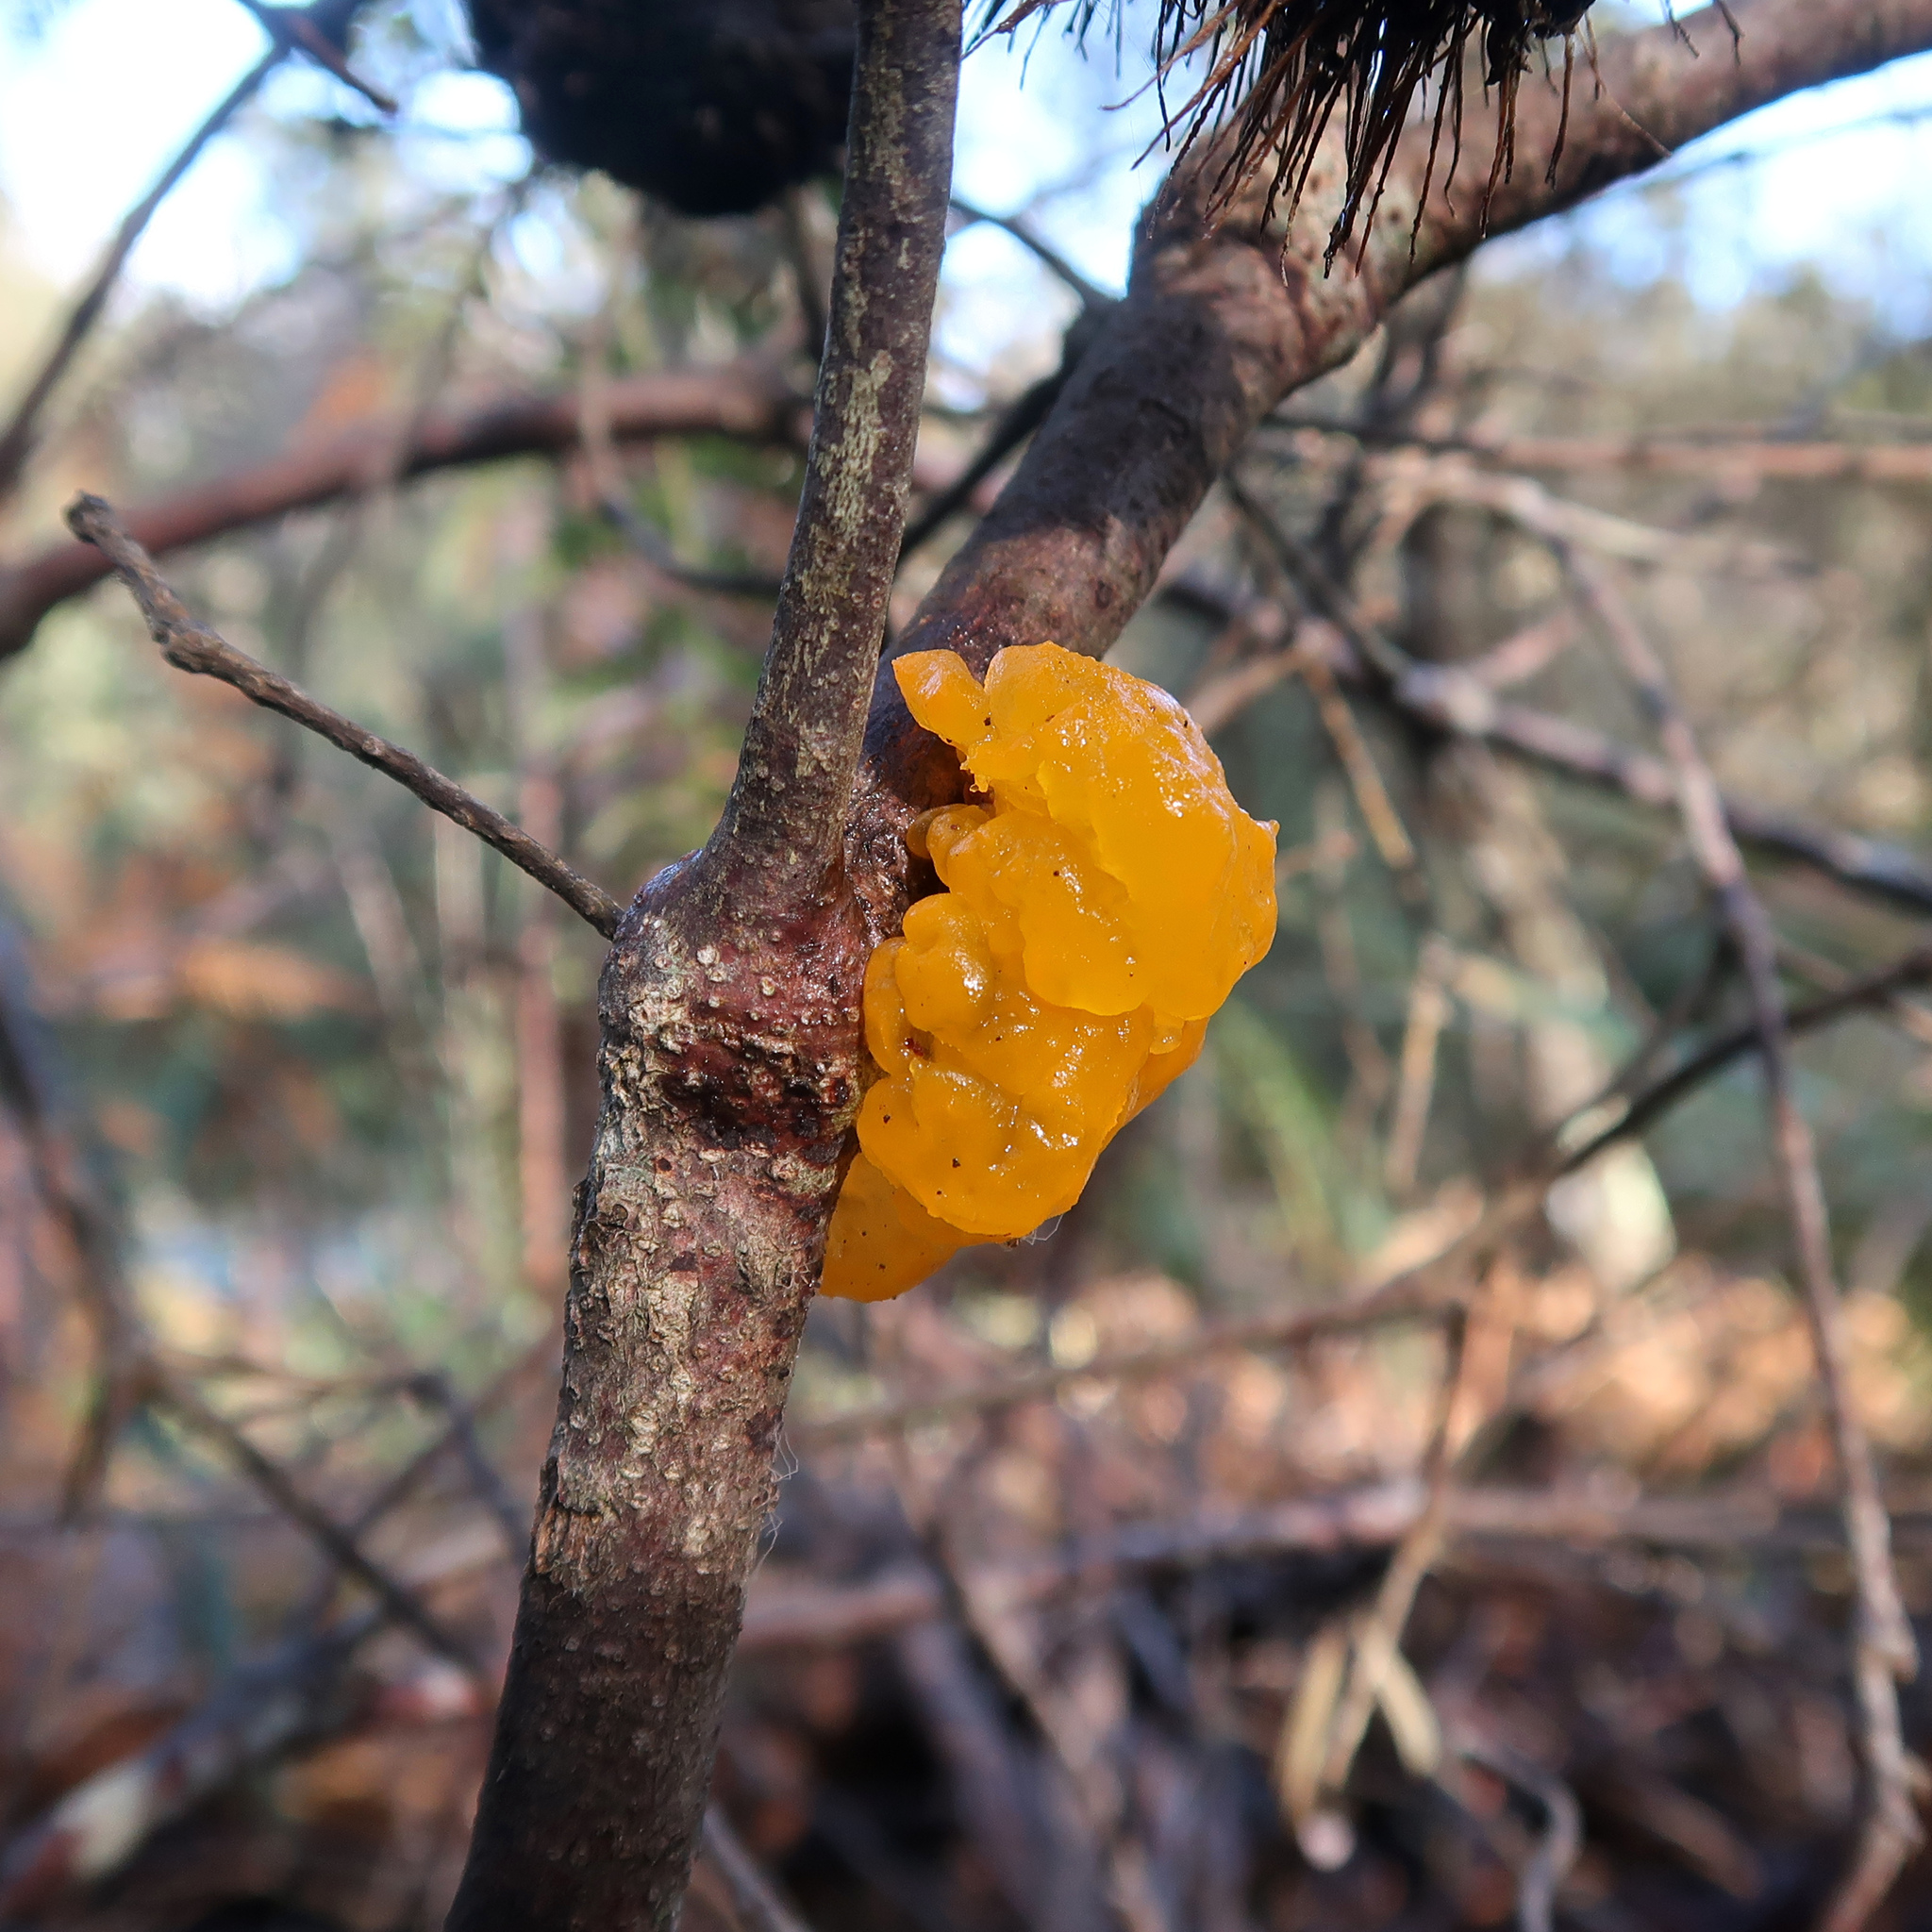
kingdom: Fungi
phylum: Basidiomycota
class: Tremellomycetes
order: Tremellales
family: Tremellaceae
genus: Tremella
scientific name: Tremella mesenterica
